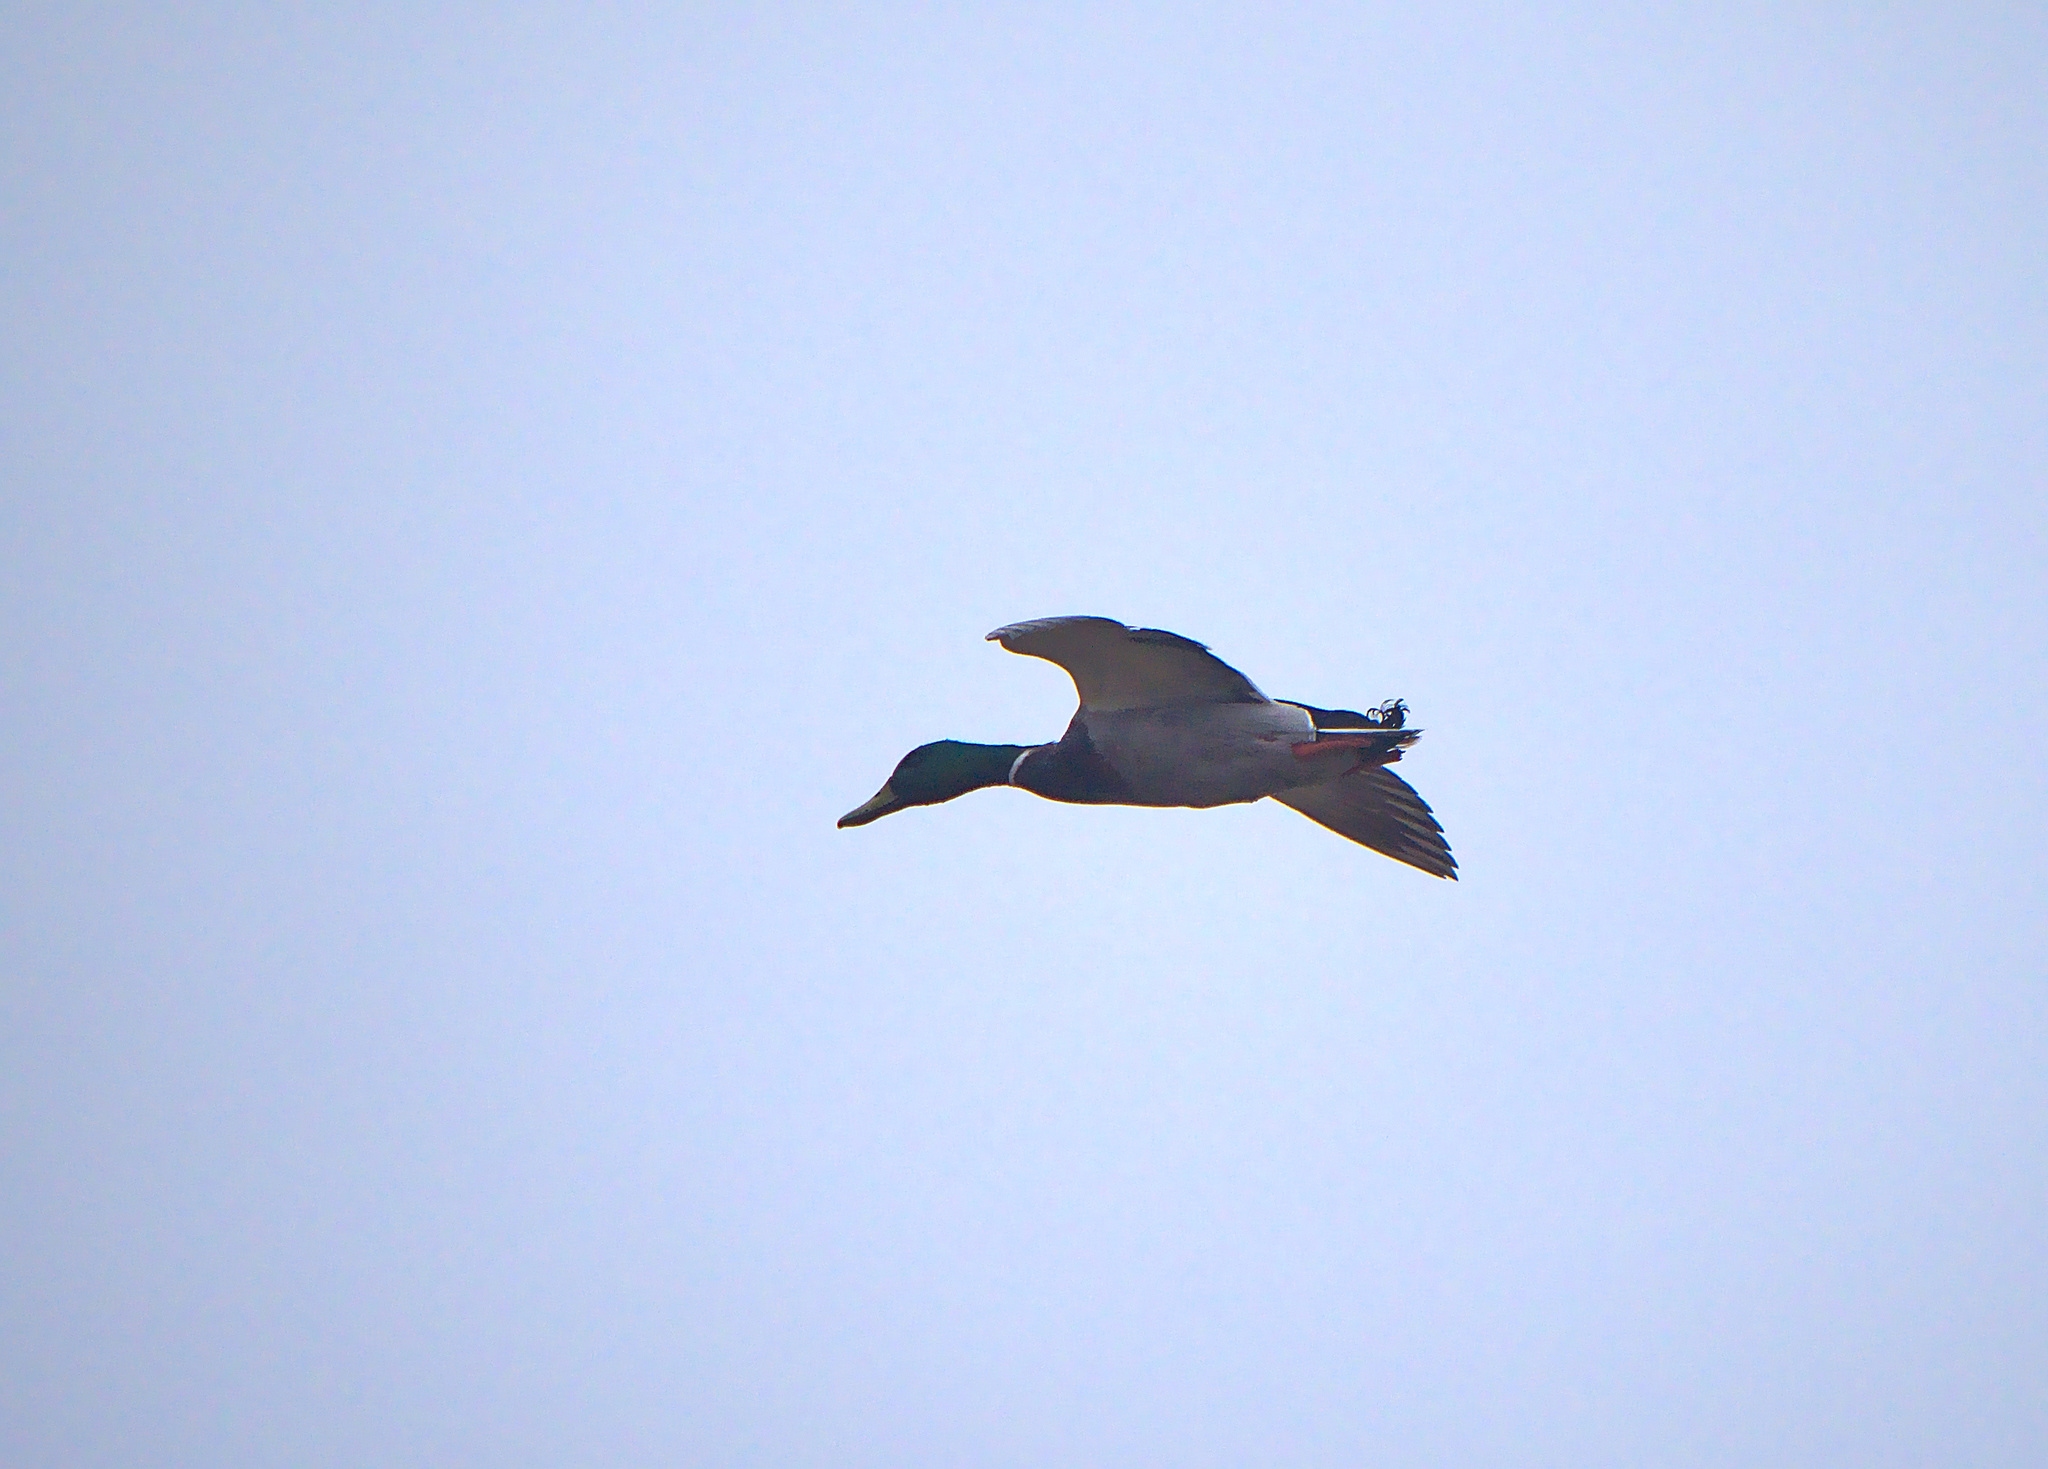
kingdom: Animalia
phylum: Chordata
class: Aves
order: Anseriformes
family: Anatidae
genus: Anas
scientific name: Anas platyrhynchos
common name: Mallard
